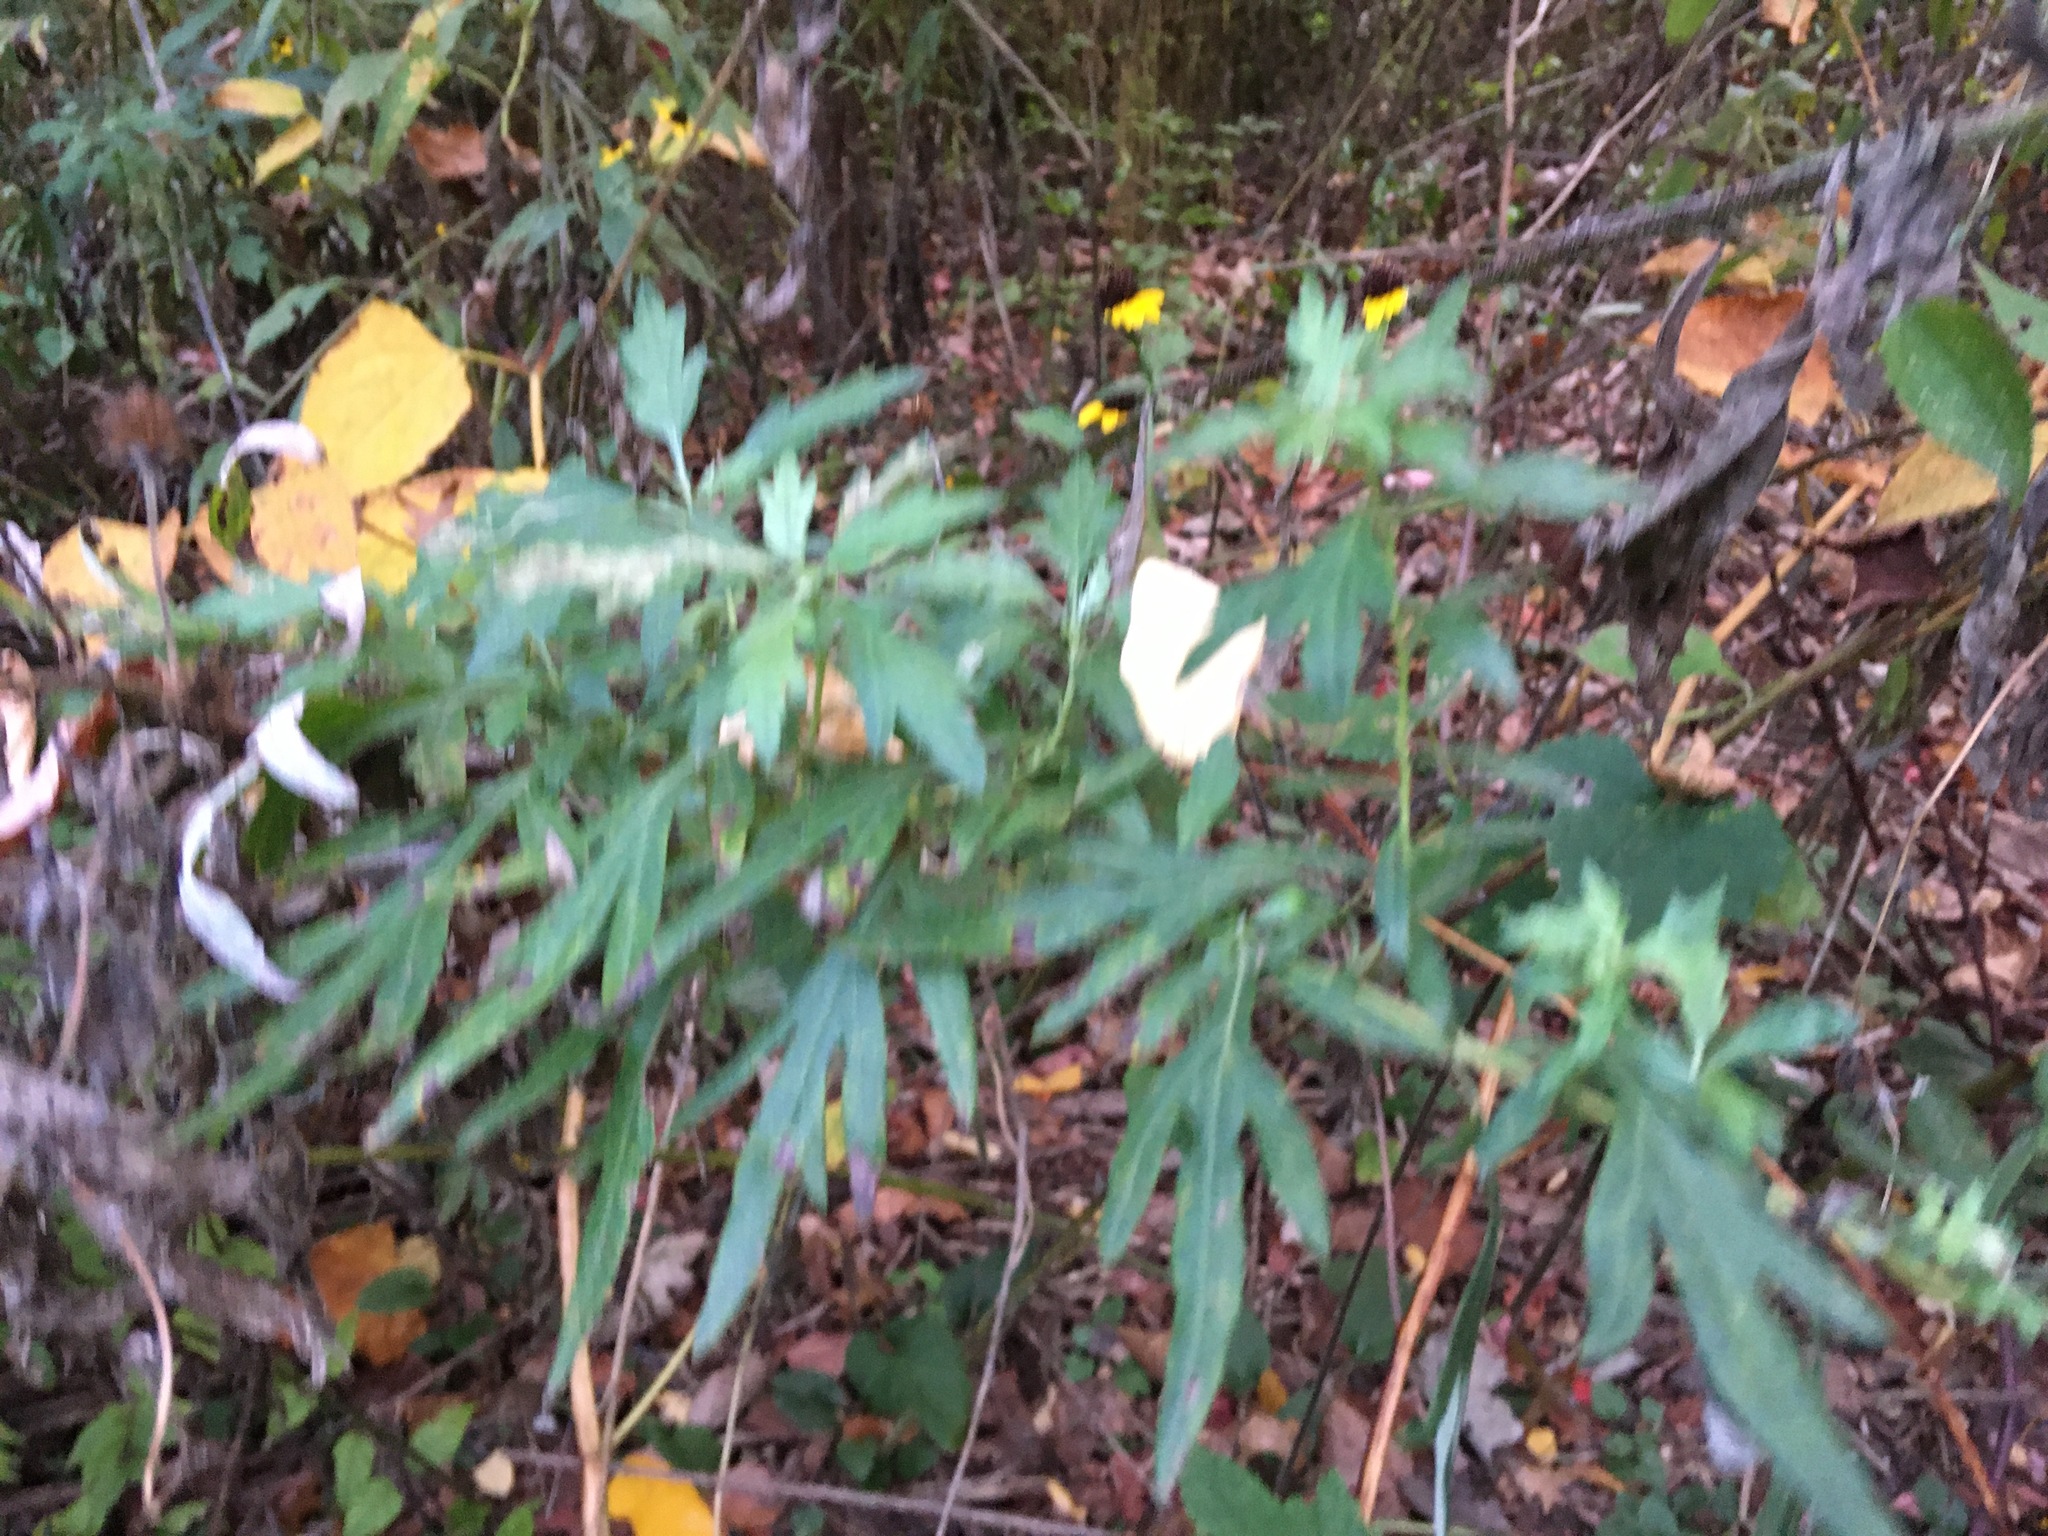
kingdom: Plantae
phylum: Tracheophyta
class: Magnoliopsida
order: Asterales
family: Asteraceae
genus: Artemisia
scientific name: Artemisia vulgaris
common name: Mugwort
